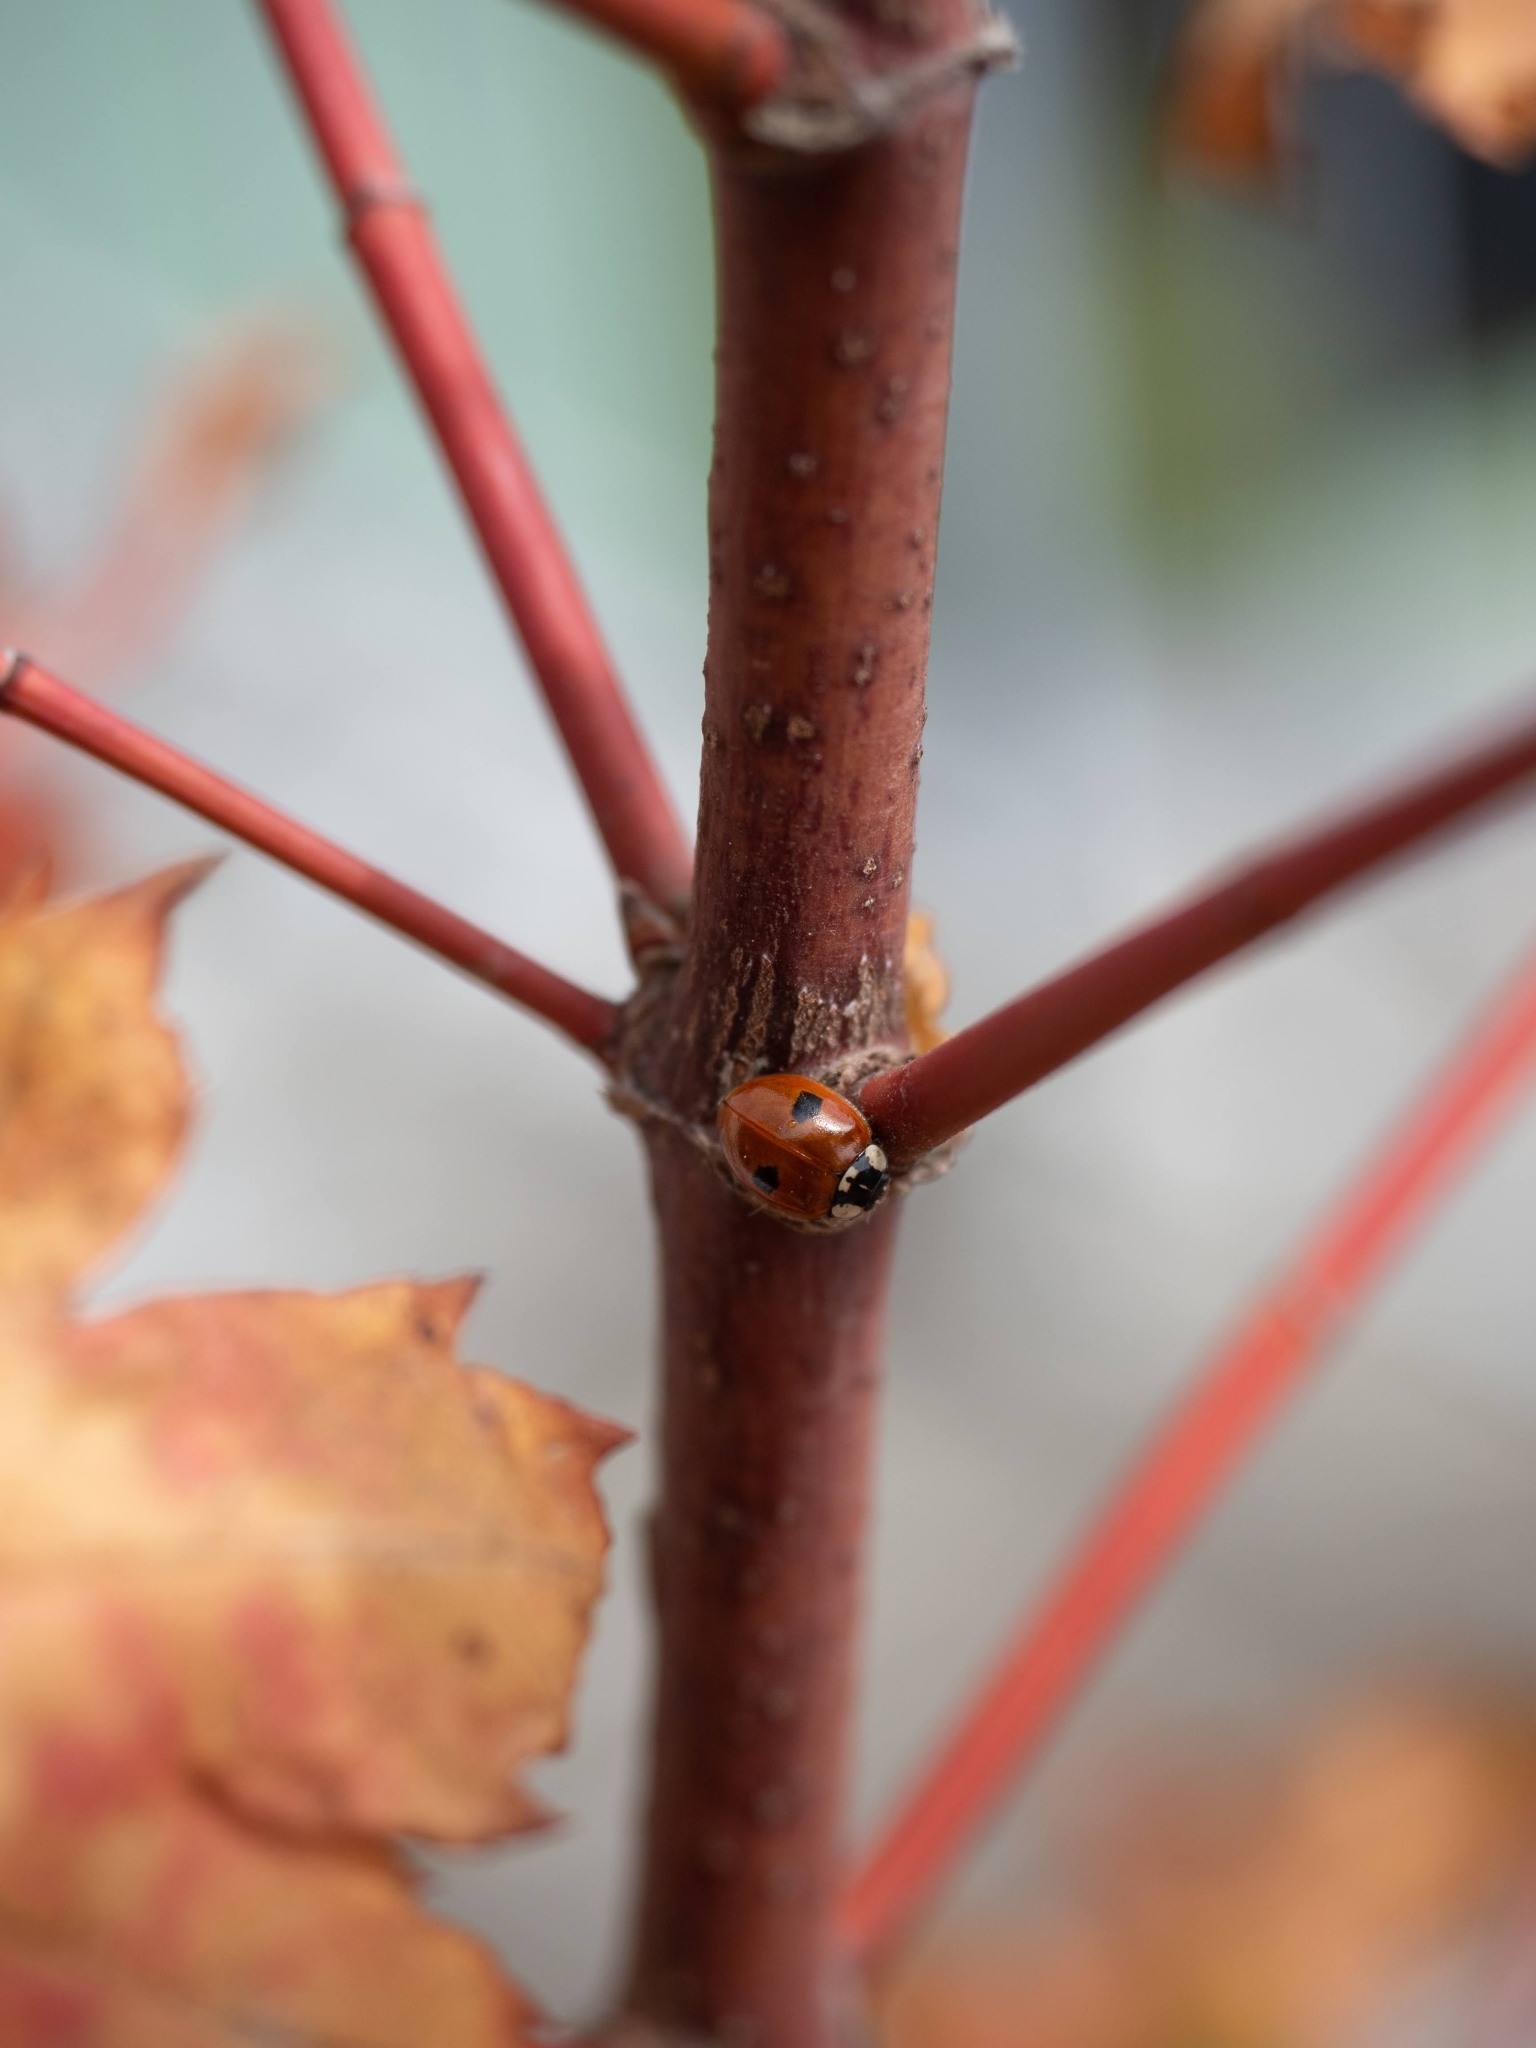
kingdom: Animalia
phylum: Arthropoda
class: Insecta
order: Coleoptera
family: Coccinellidae
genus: Adalia
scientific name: Adalia bipunctata
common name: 2-spot ladybird
